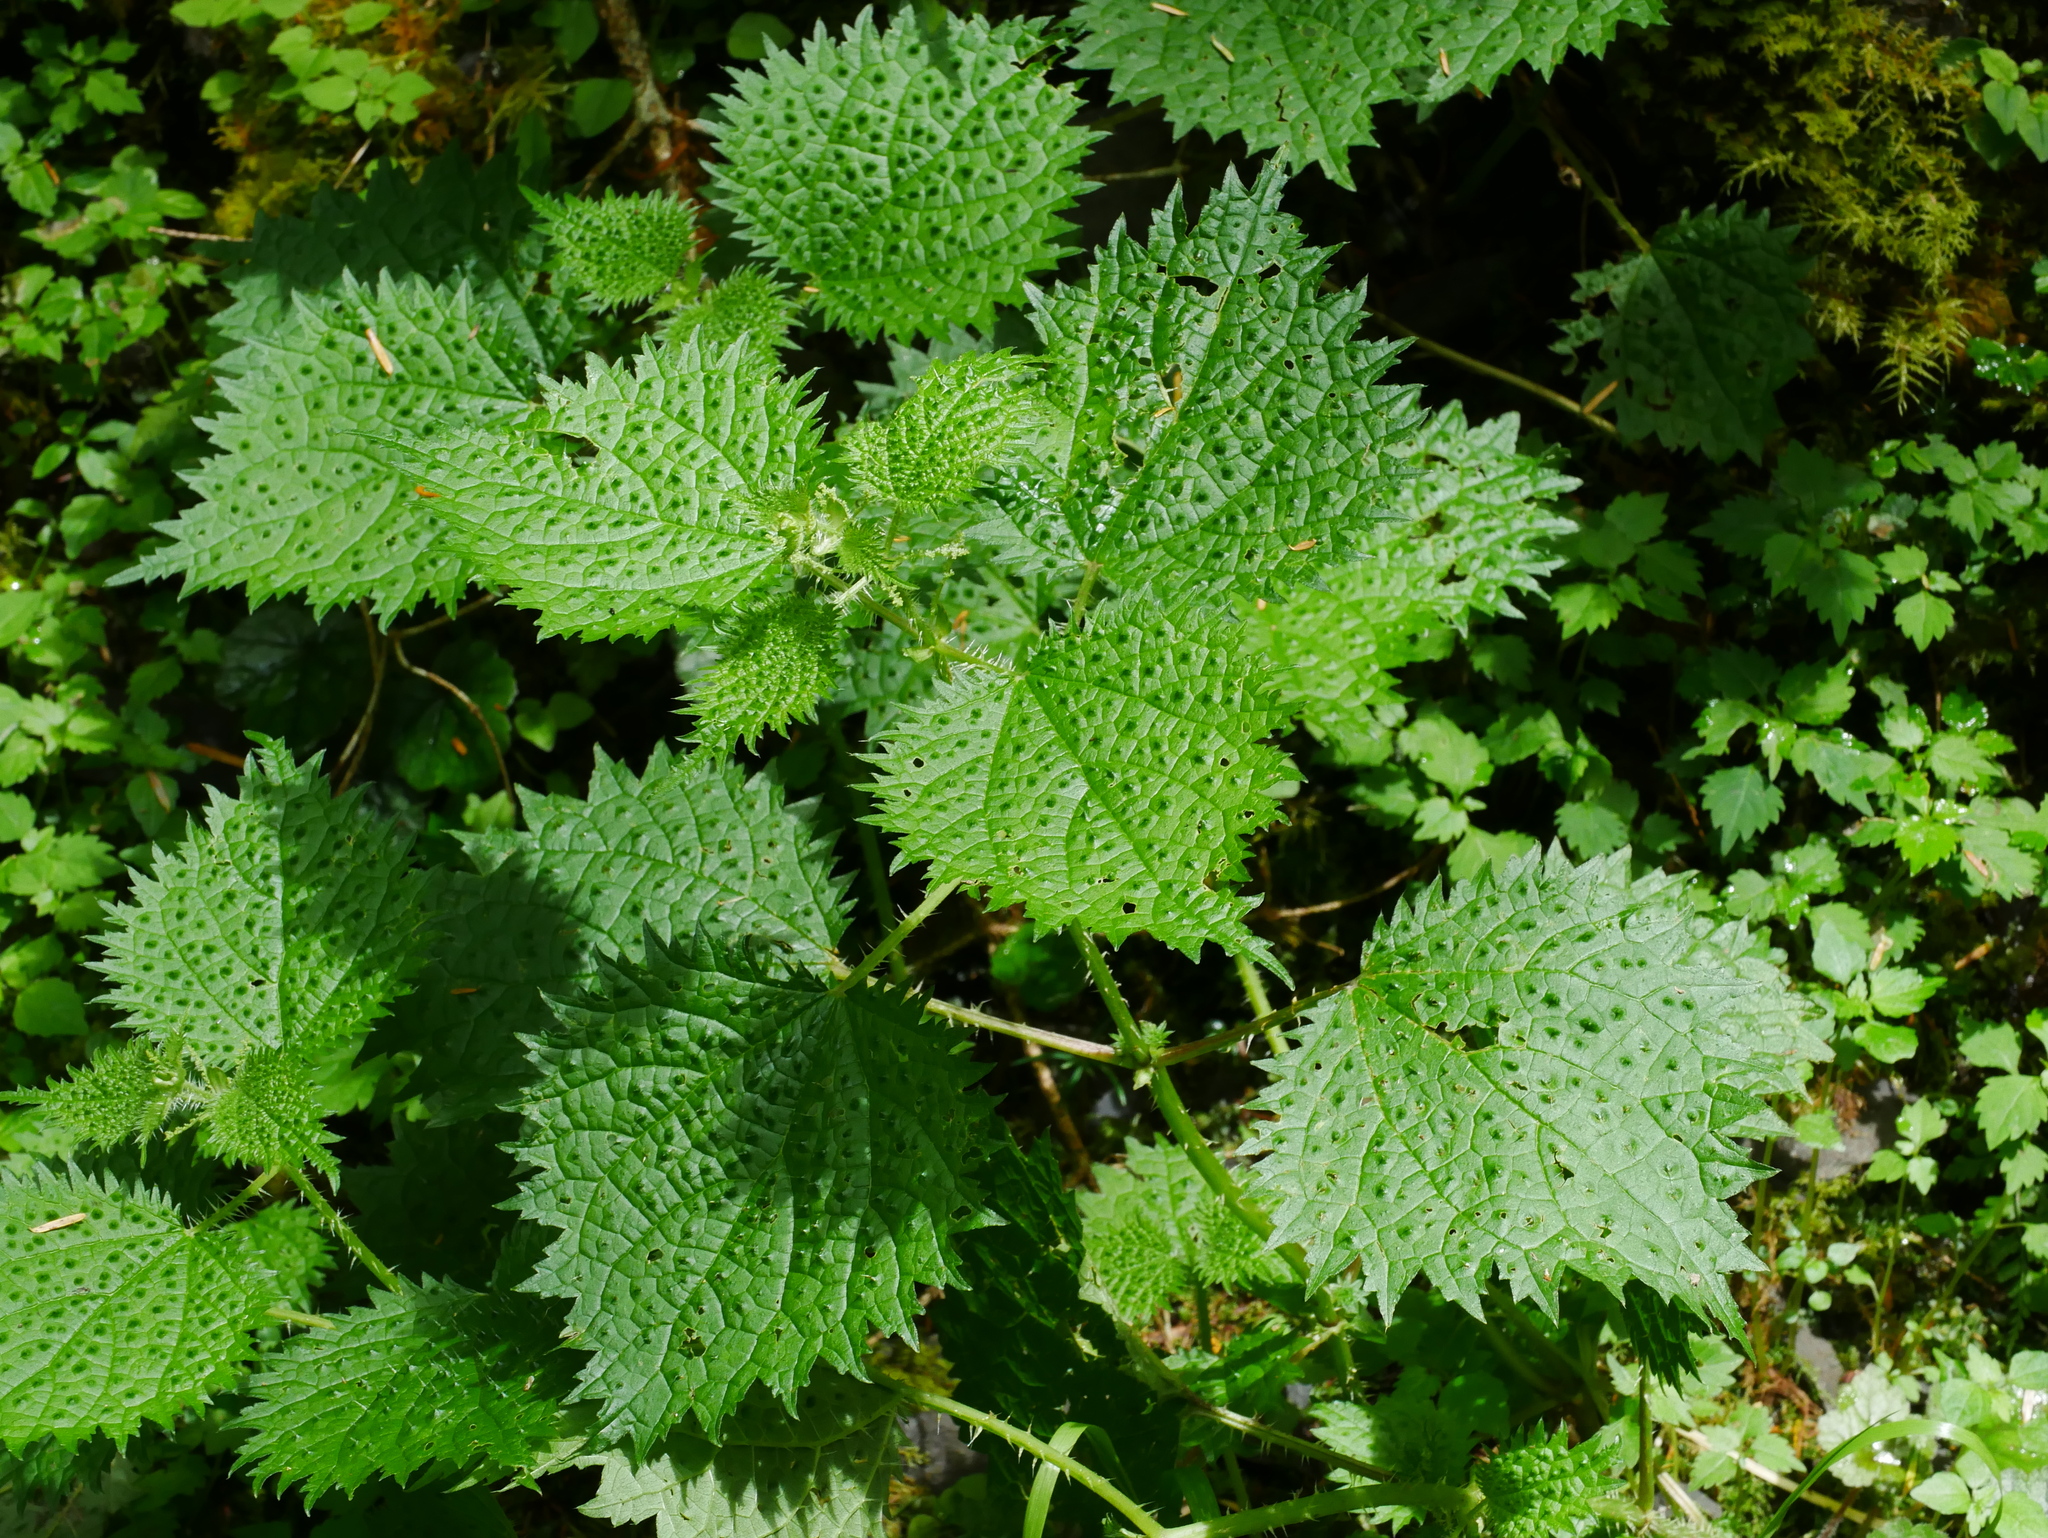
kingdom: Plantae
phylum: Tracheophyta
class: Magnoliopsida
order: Rosales
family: Urticaceae
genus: Urtica
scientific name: Urtica thunbergiana
